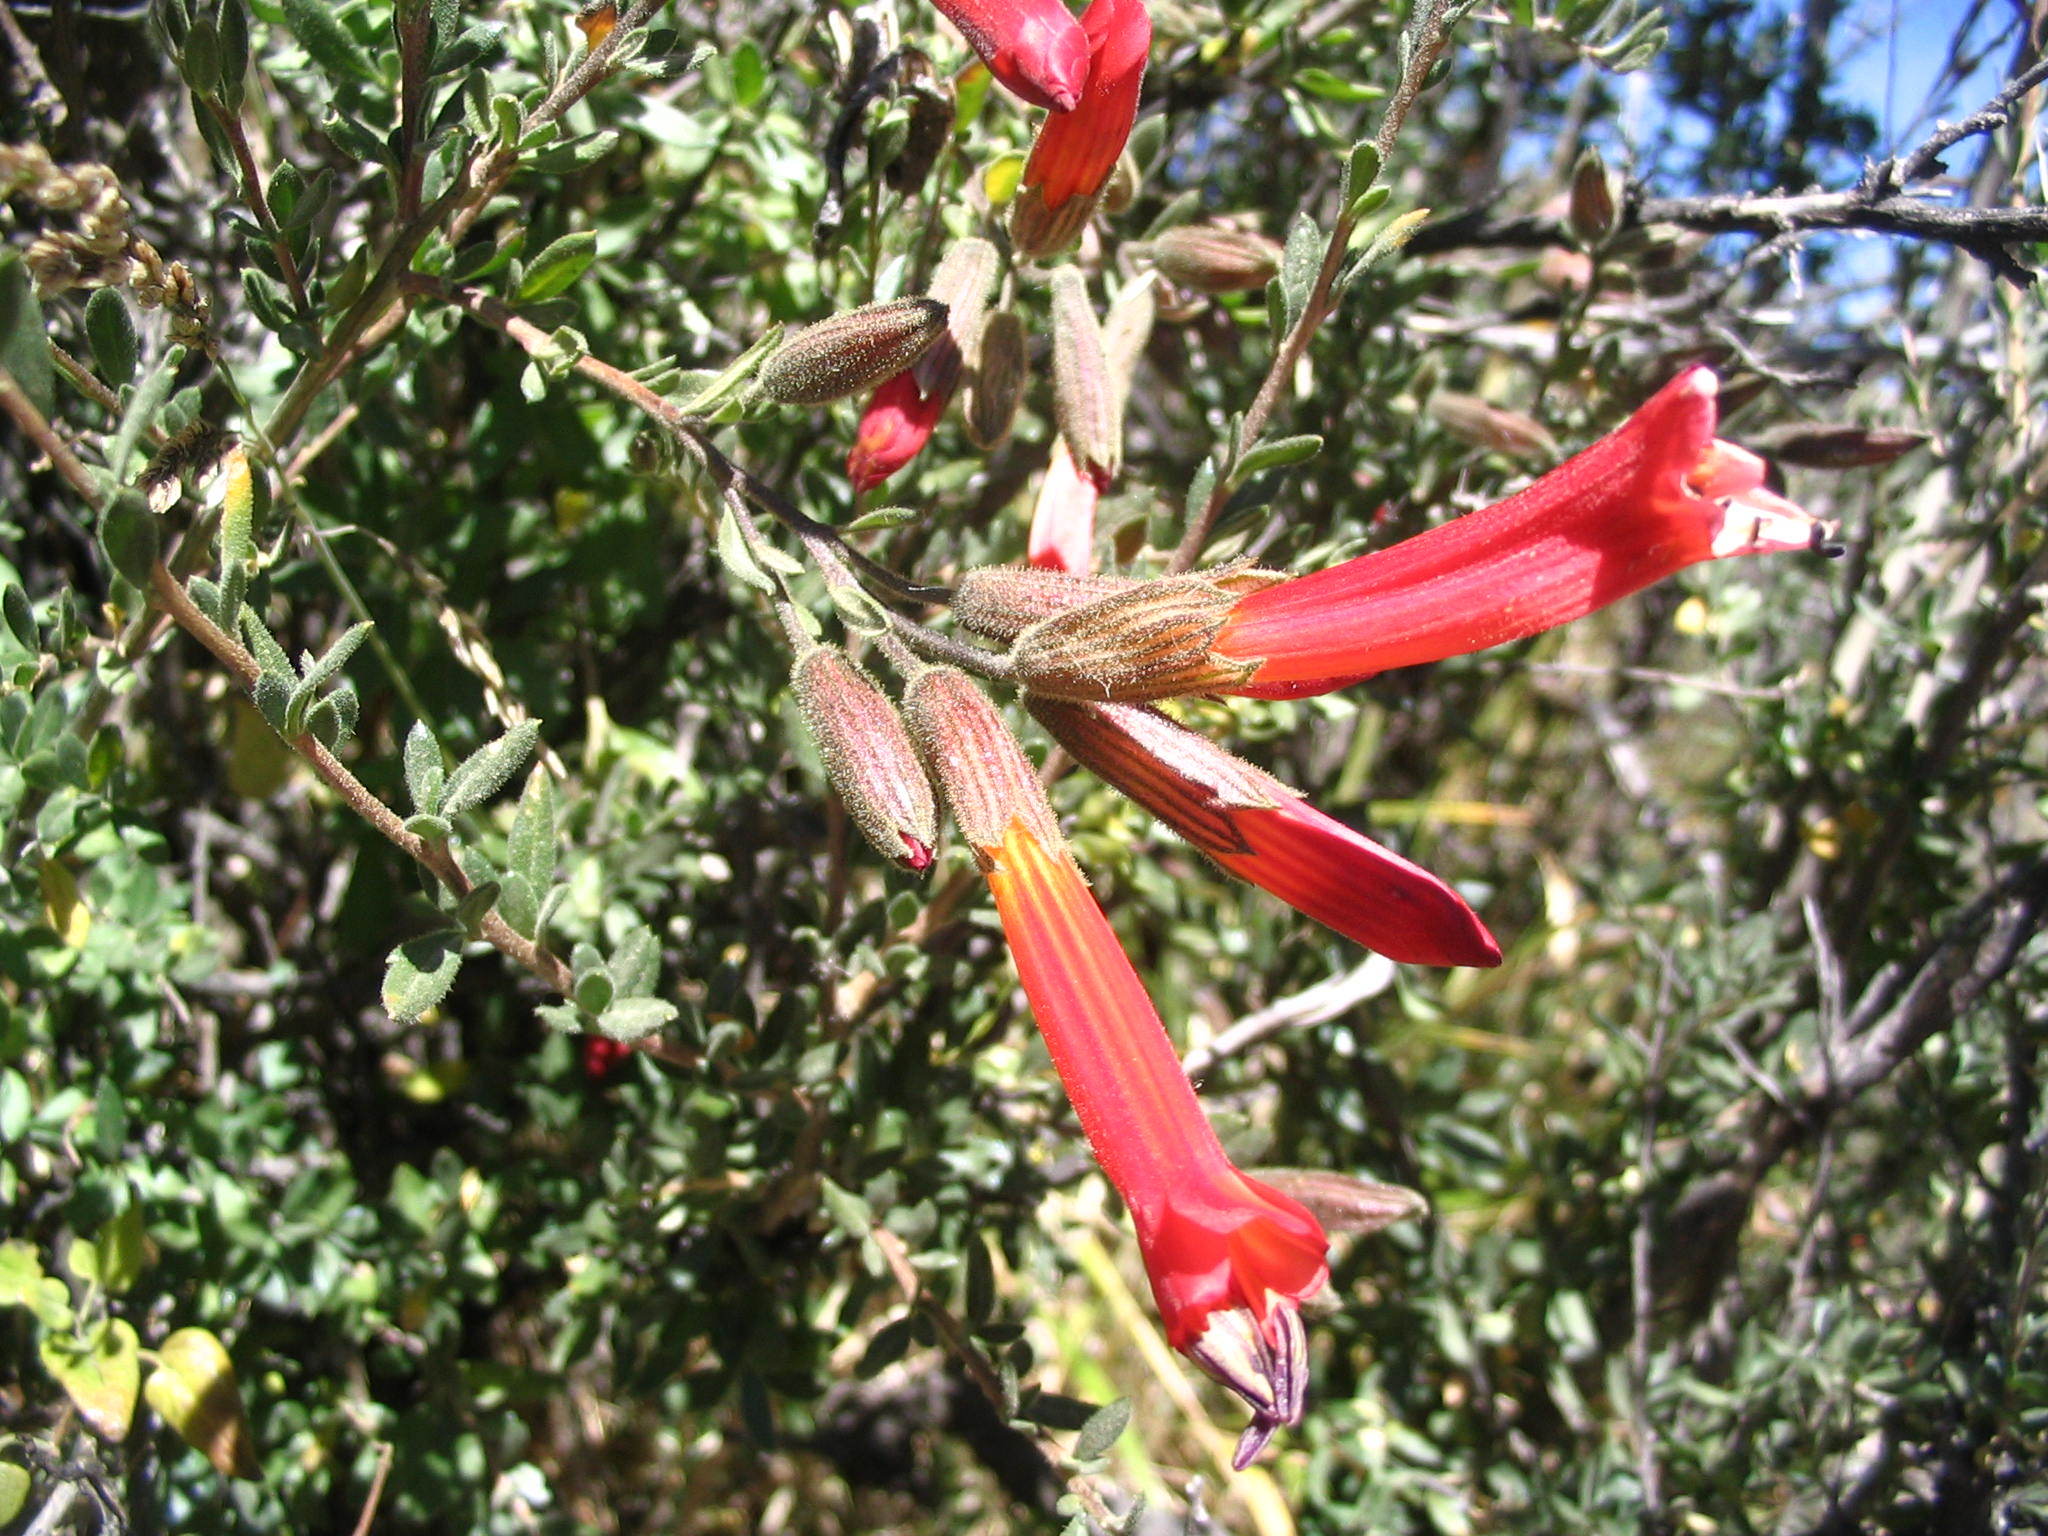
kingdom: Plantae
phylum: Tracheophyta
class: Magnoliopsida
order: Ericales
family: Polemoniaceae
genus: Cantua
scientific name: Cantua buxifolia
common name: Sacred-flower-of-the-incas
